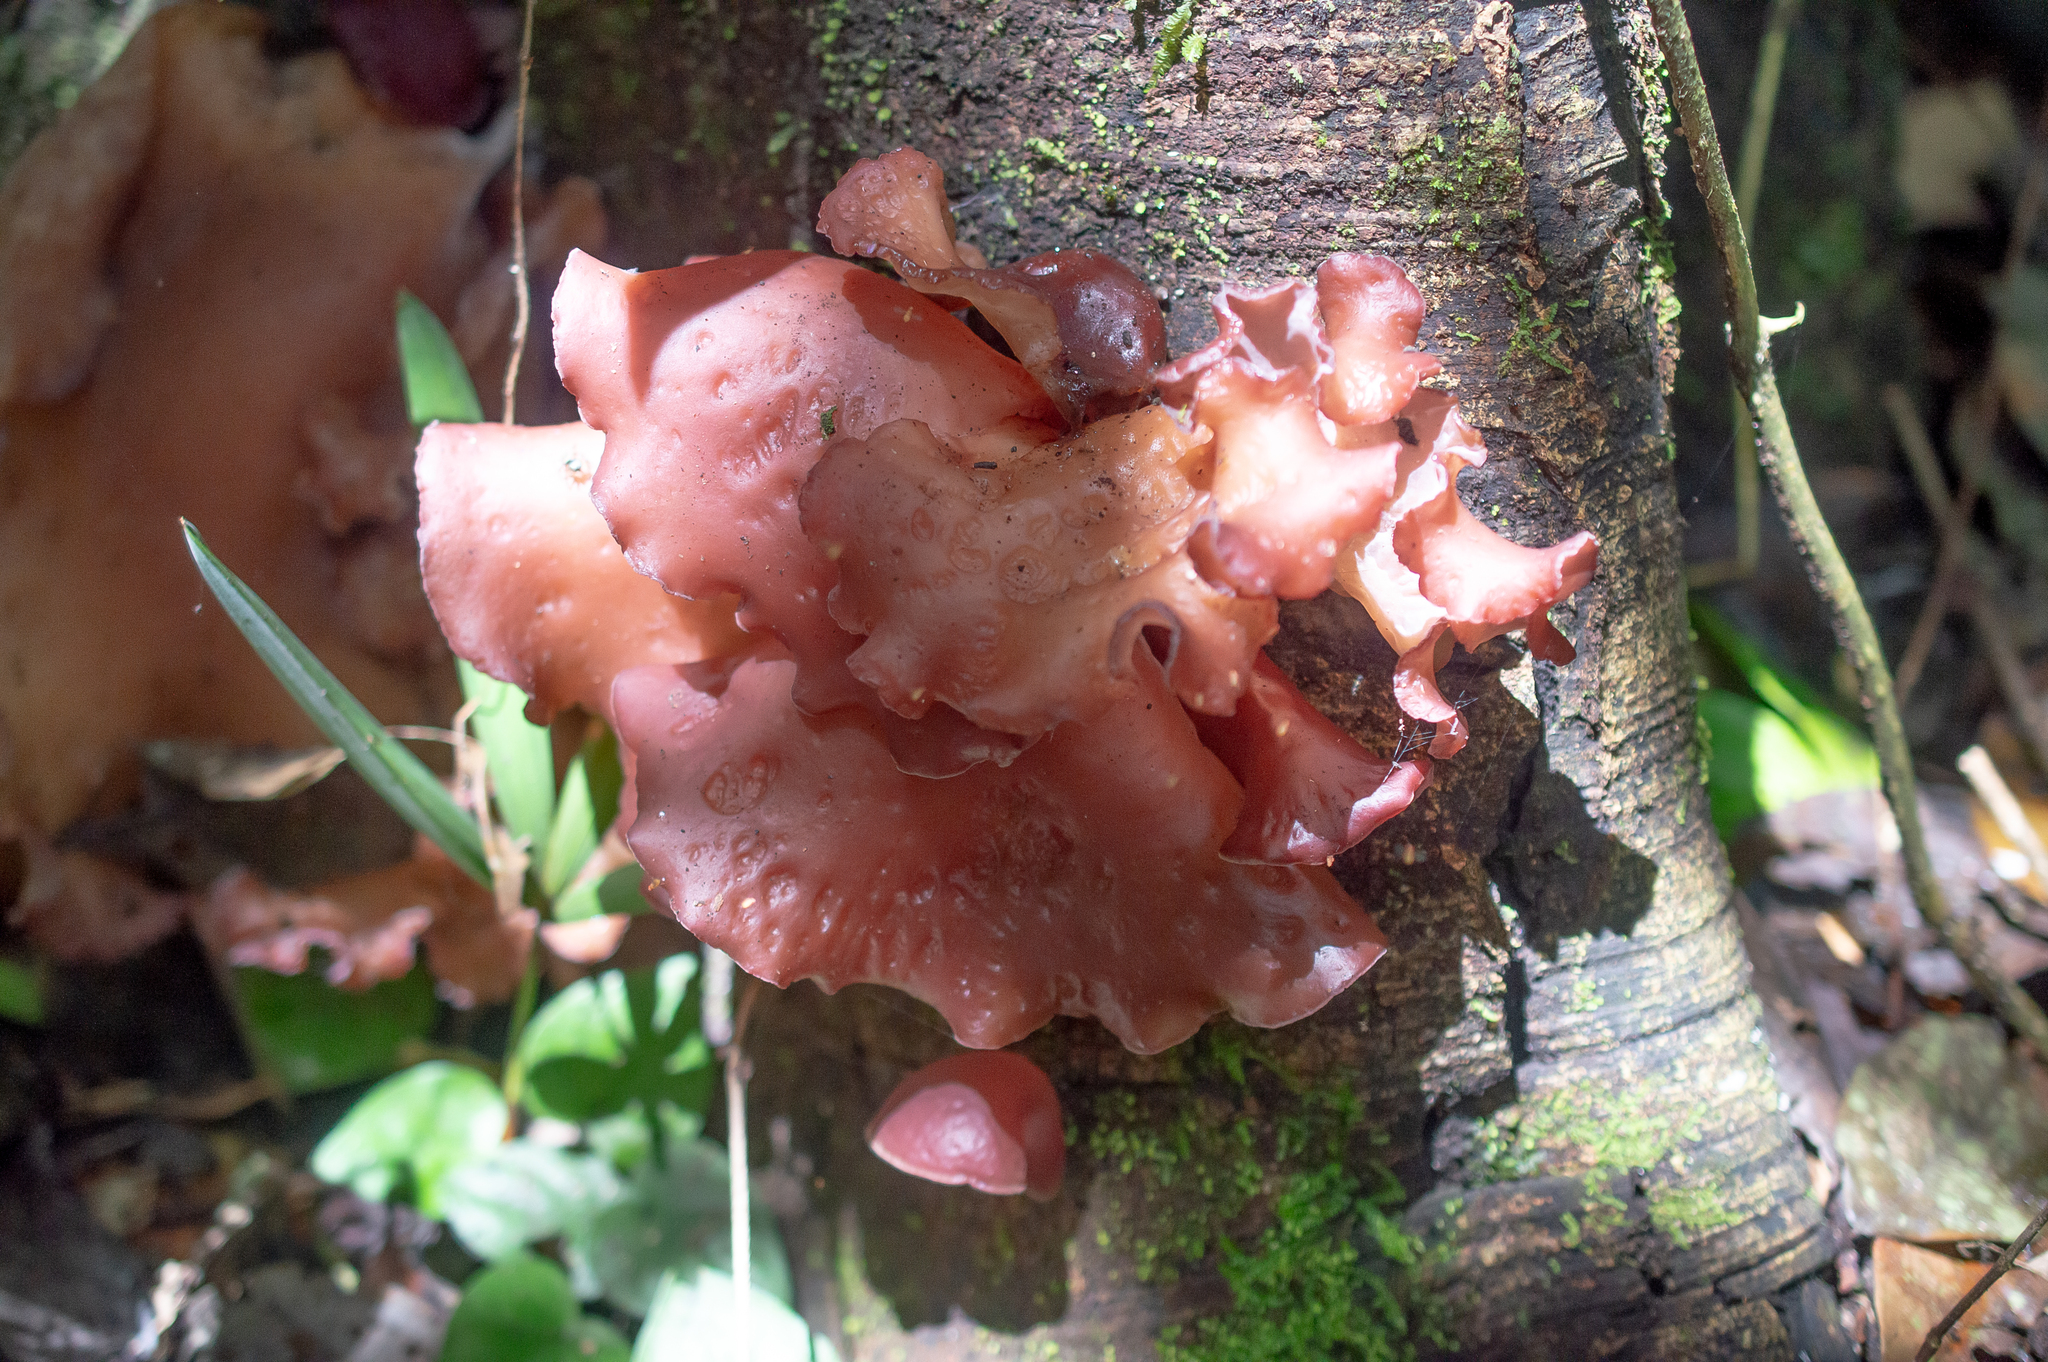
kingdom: Fungi
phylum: Basidiomycota
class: Agaricomycetes
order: Auriculariales
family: Auriculariaceae
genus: Auricularia
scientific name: Auricularia fuscosuccinea
